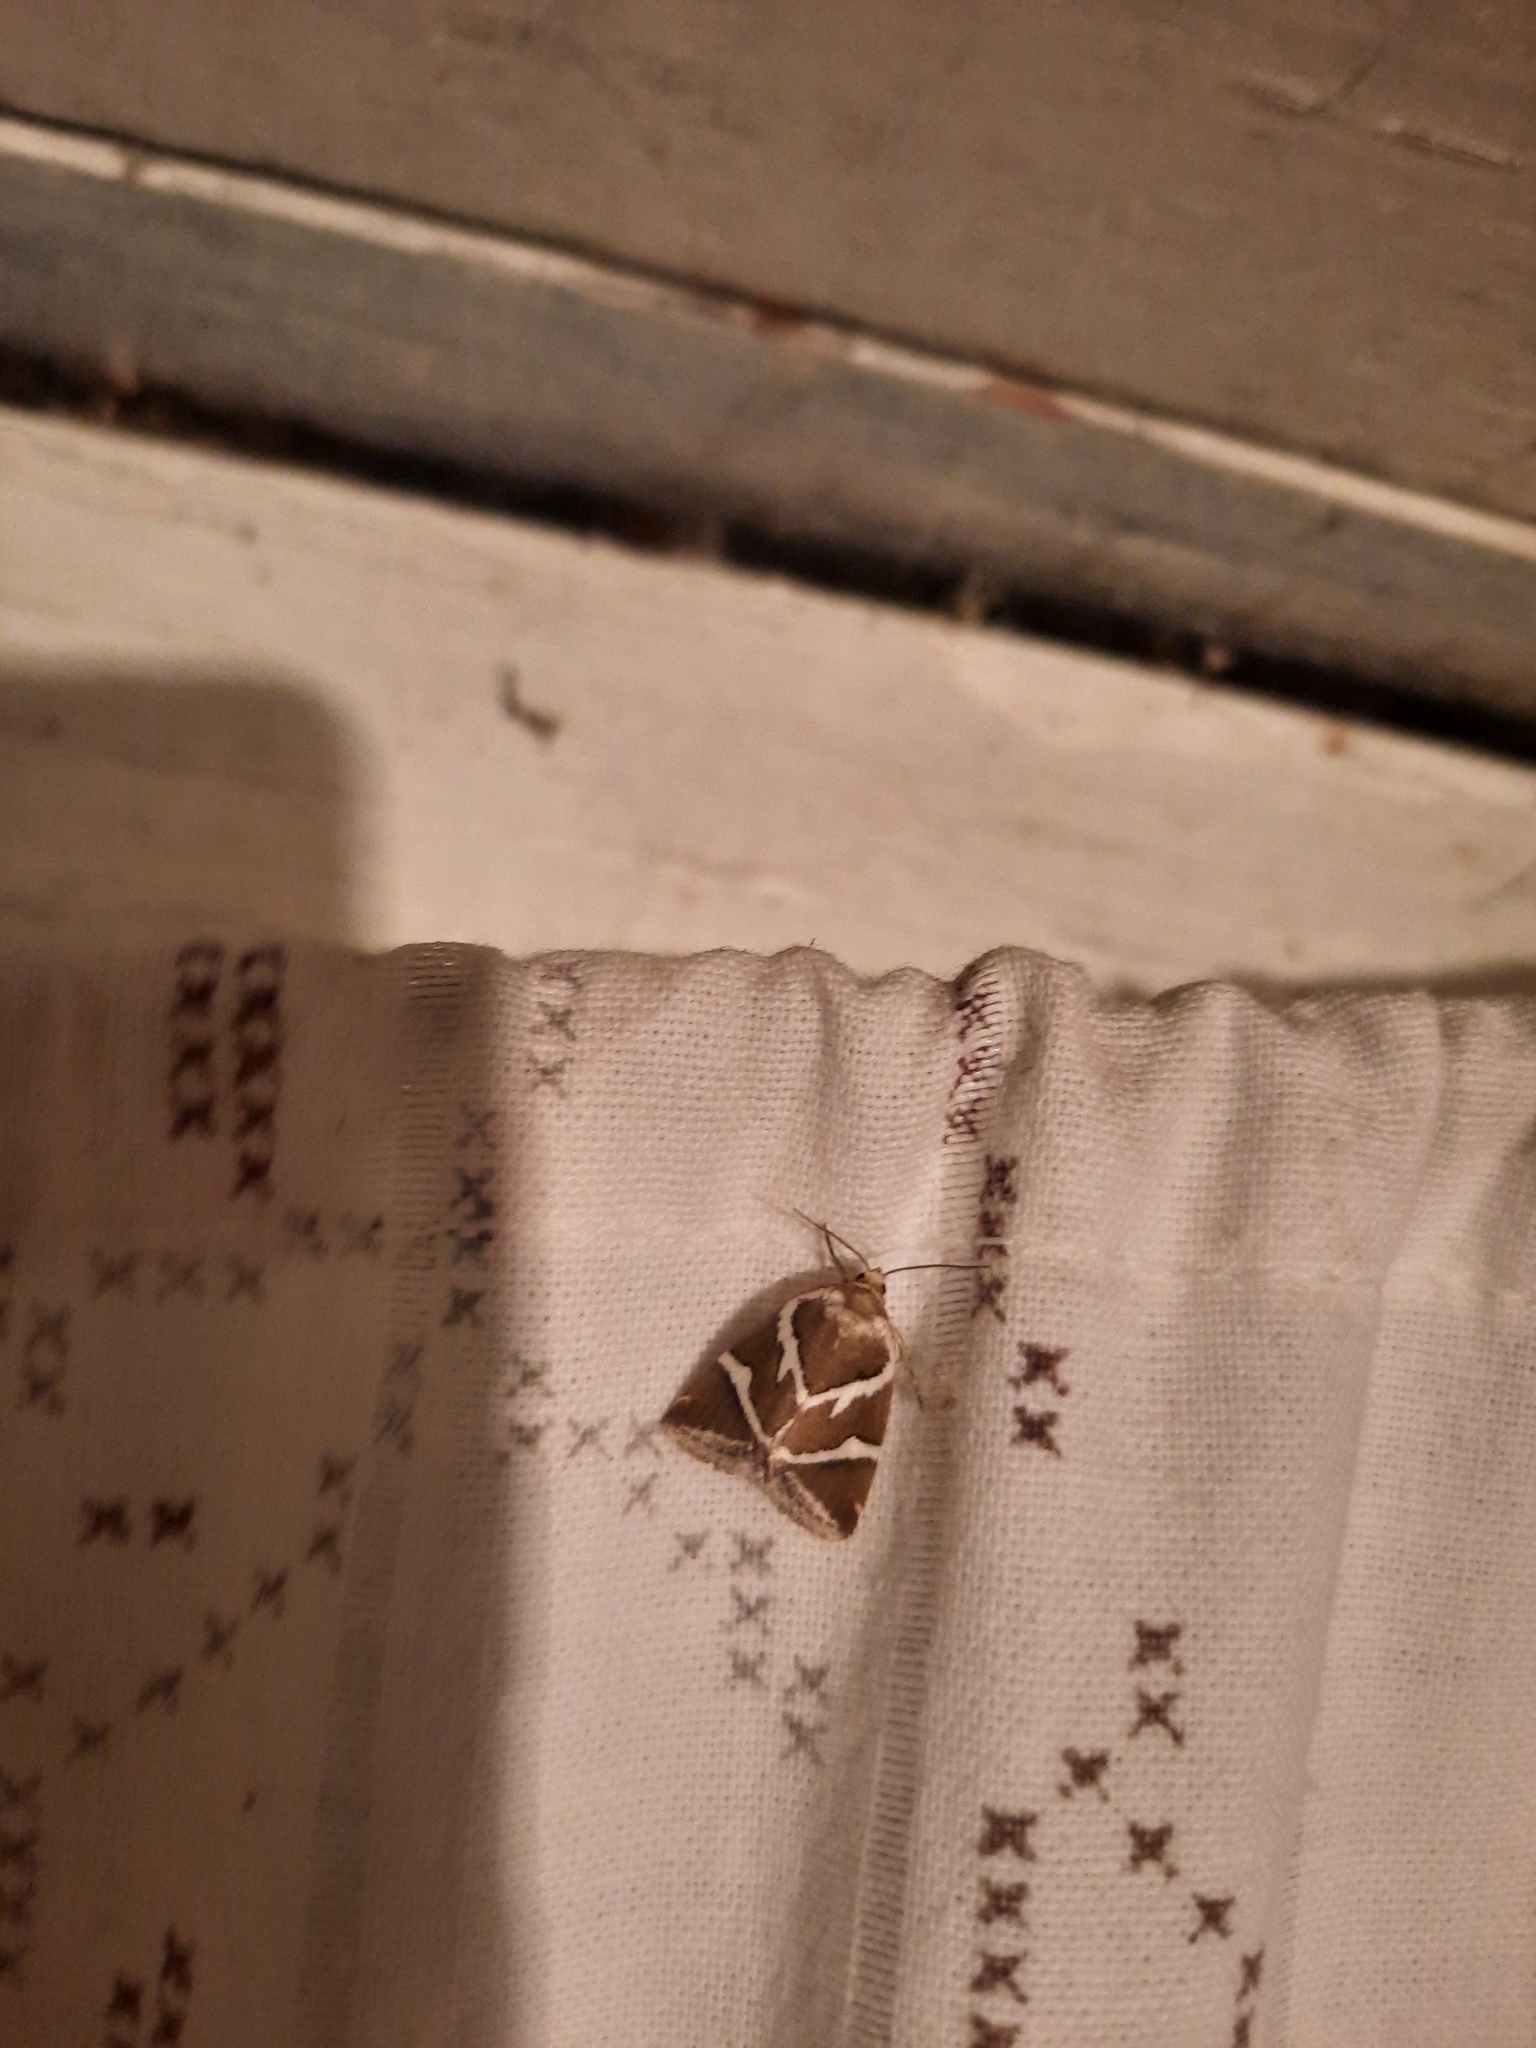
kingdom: Animalia
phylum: Arthropoda
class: Insecta
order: Lepidoptera
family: Noctuidae
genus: Deltote
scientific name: Deltote bankiana
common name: Silver barred
